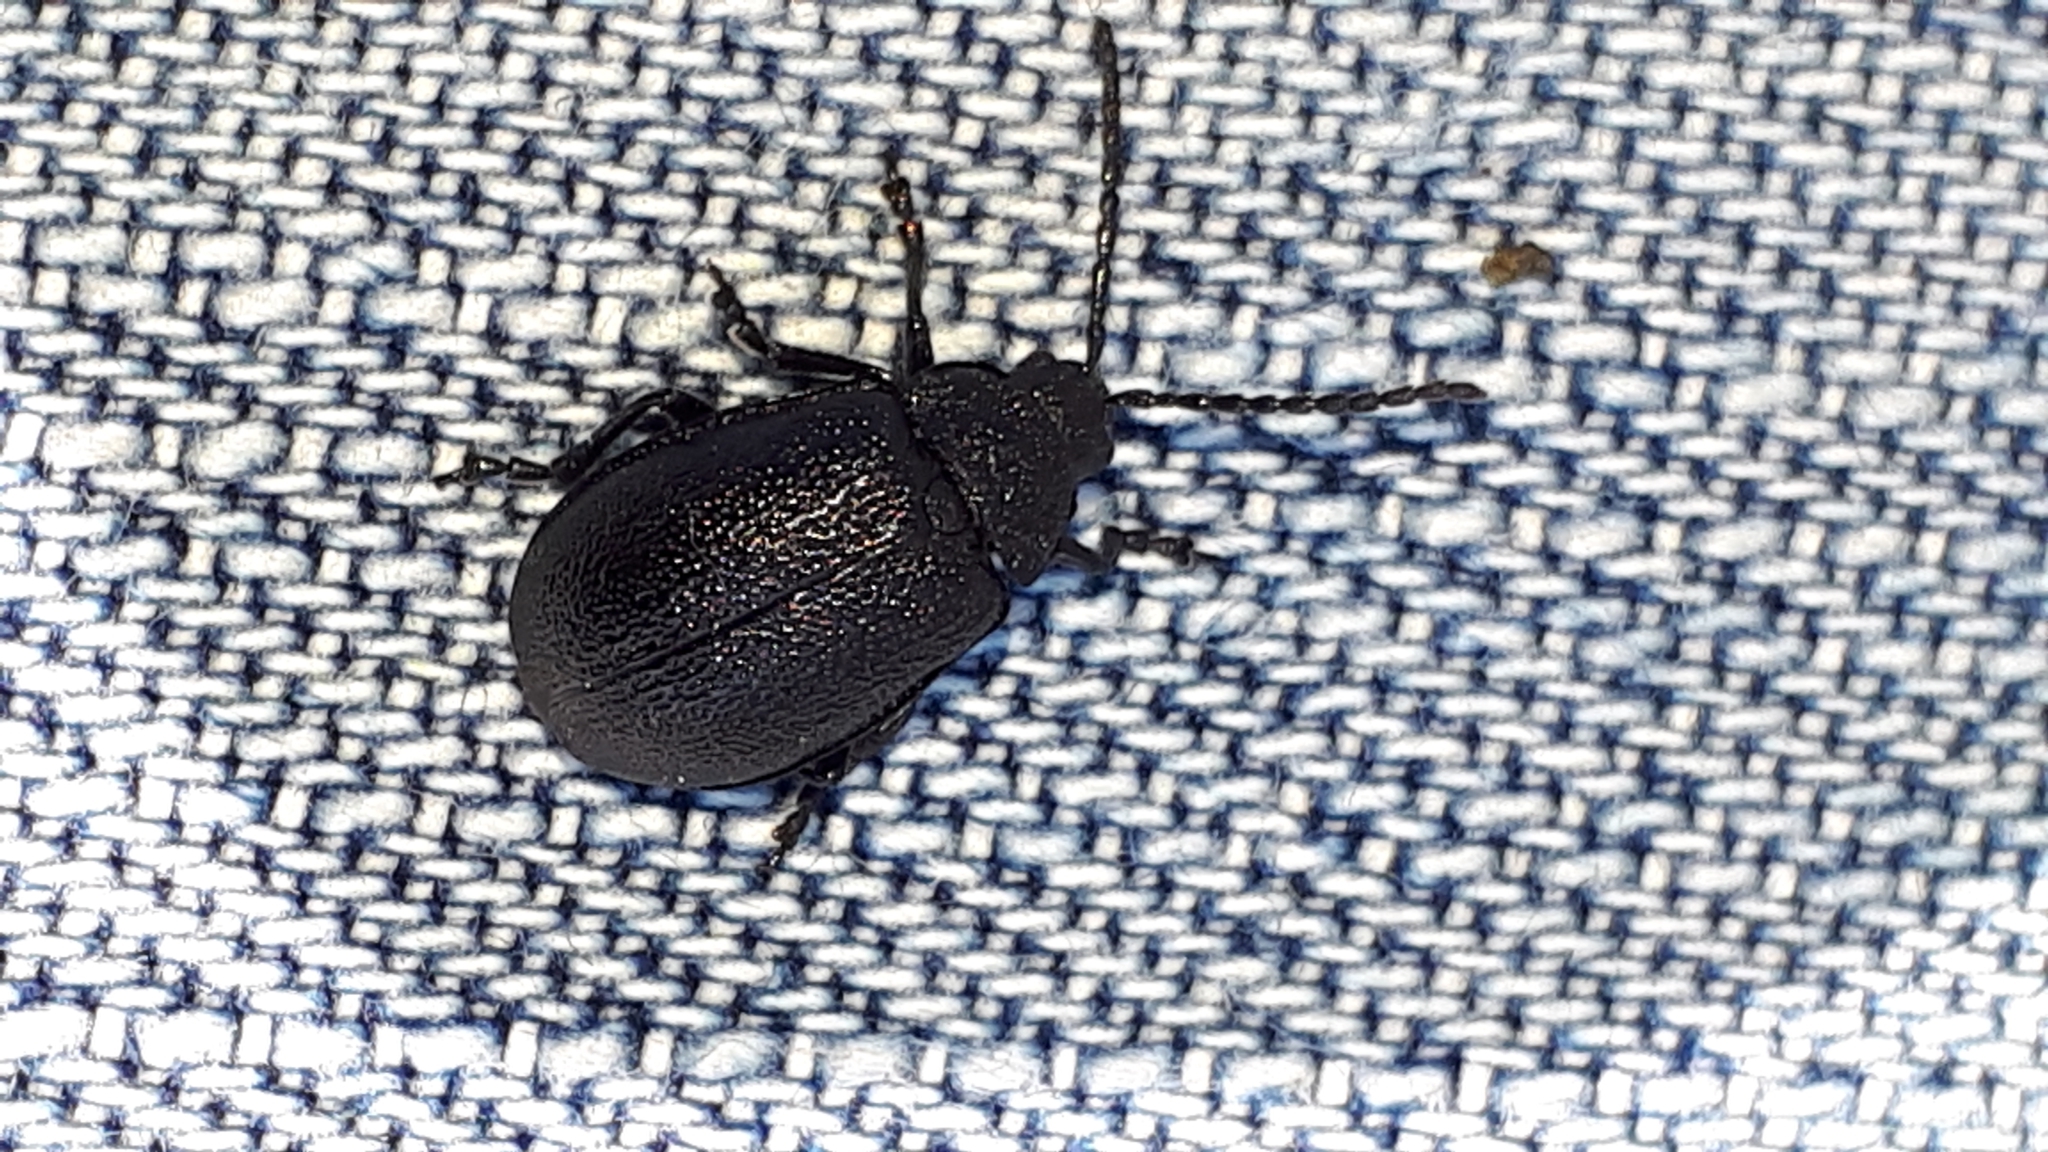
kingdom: Animalia
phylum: Arthropoda
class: Insecta
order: Coleoptera
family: Chrysomelidae
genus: Galeruca
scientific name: Galeruca tanaceti
